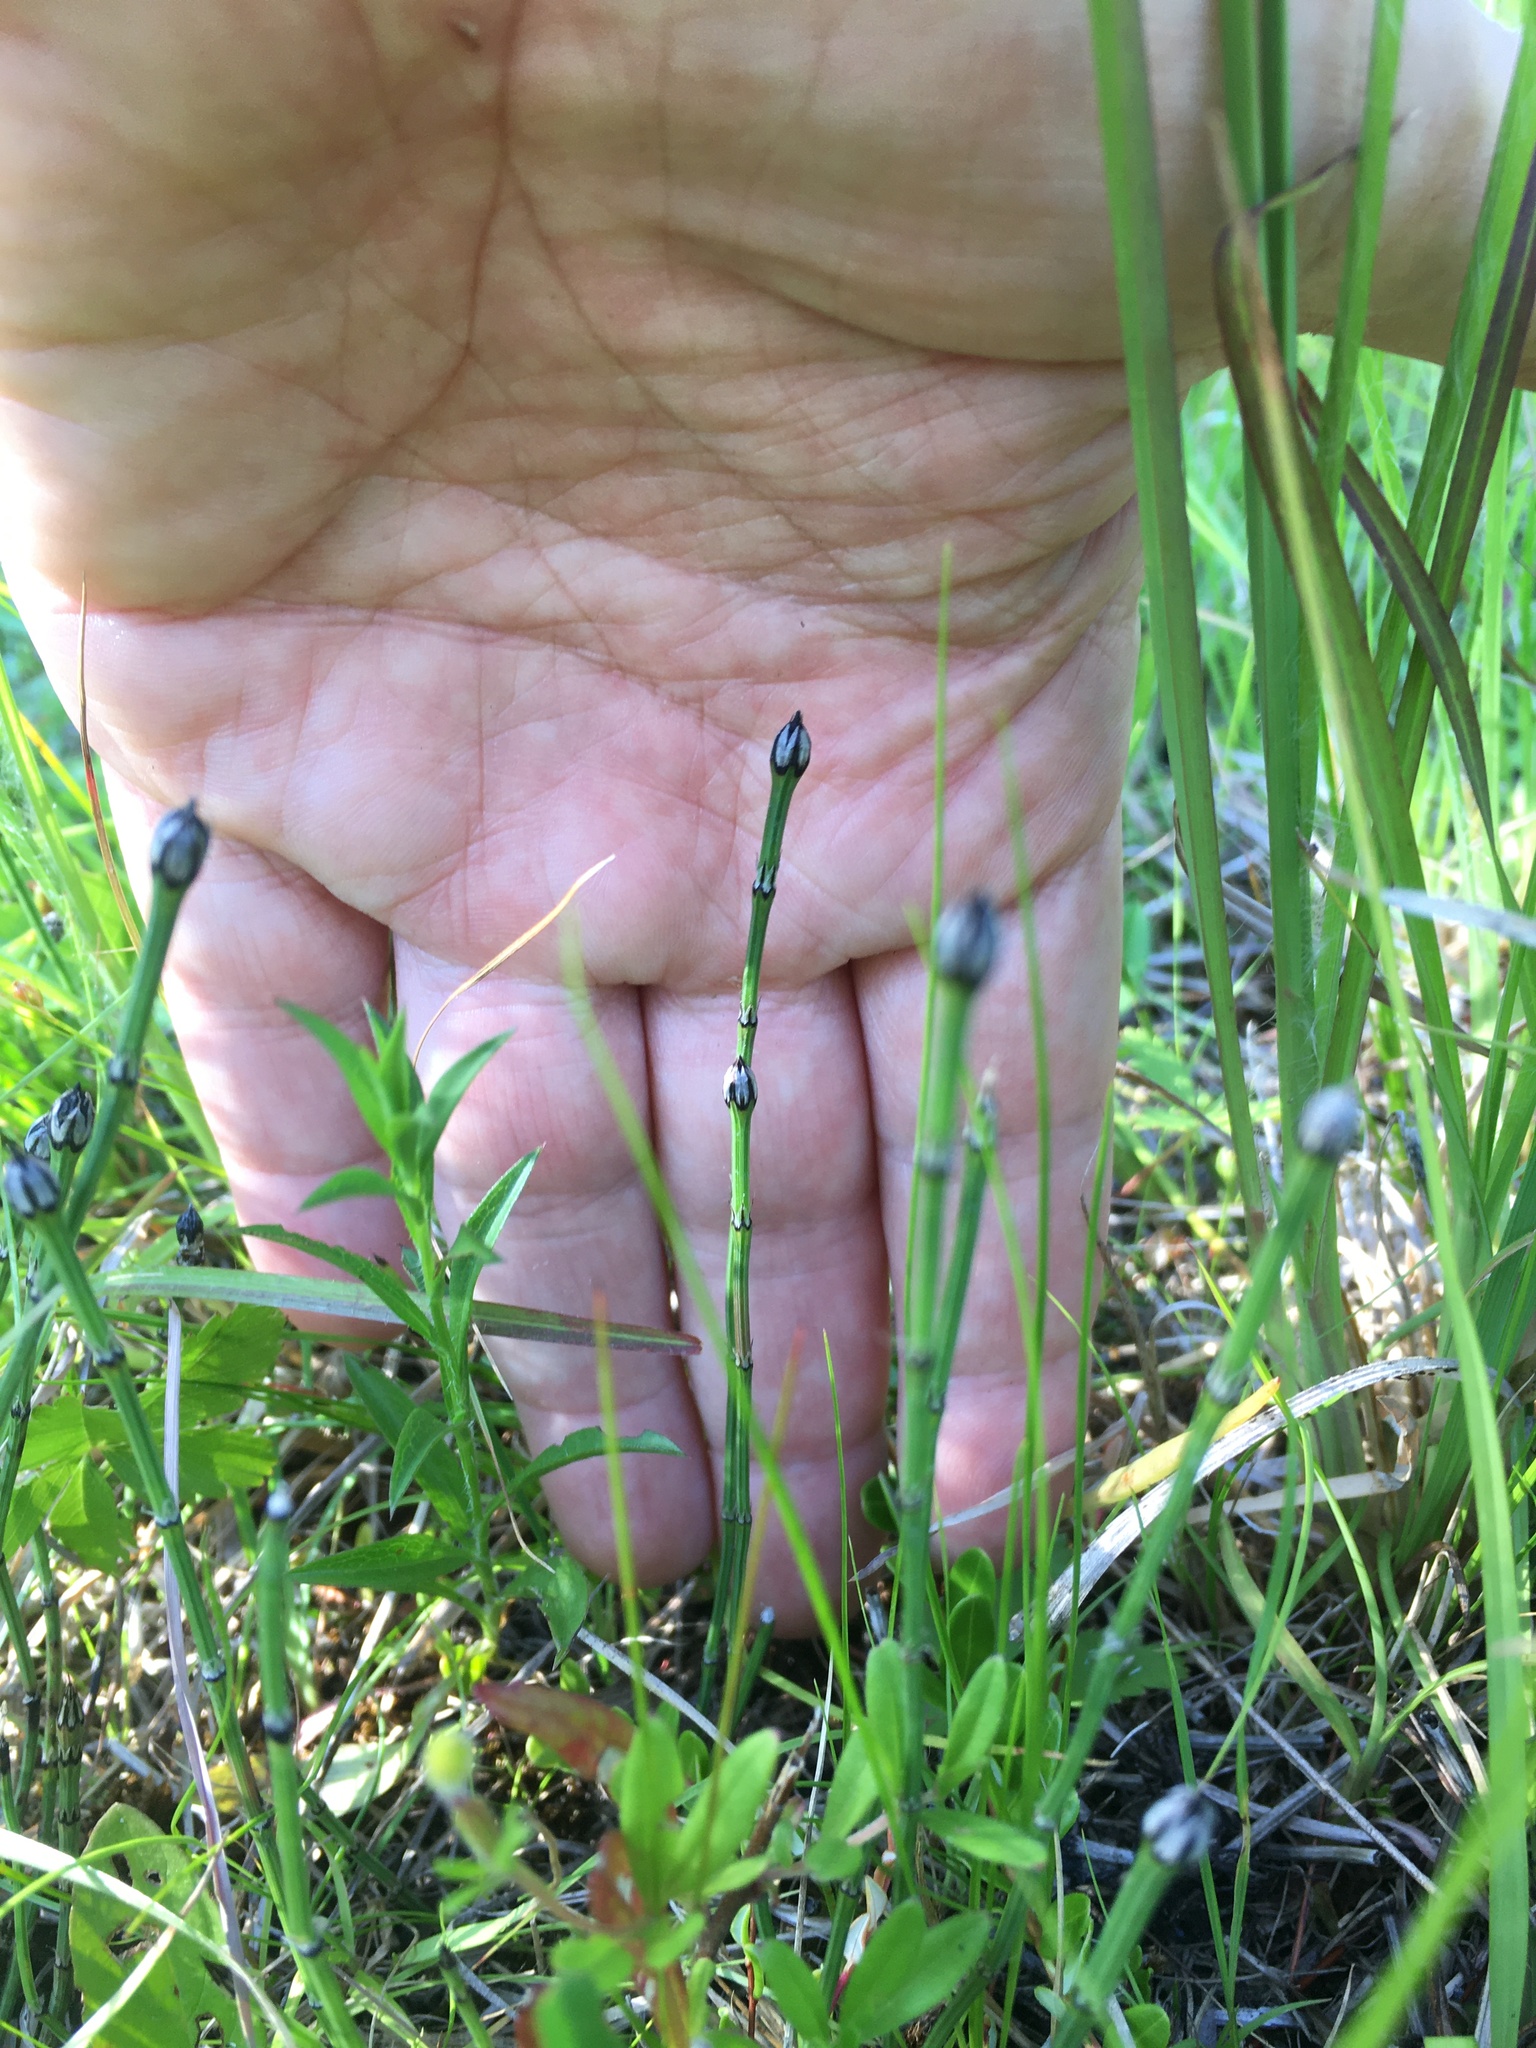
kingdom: Plantae
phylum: Tracheophyta
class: Polypodiopsida
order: Equisetales
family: Equisetaceae
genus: Equisetum
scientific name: Equisetum variegatum
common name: Variegated horsetail
